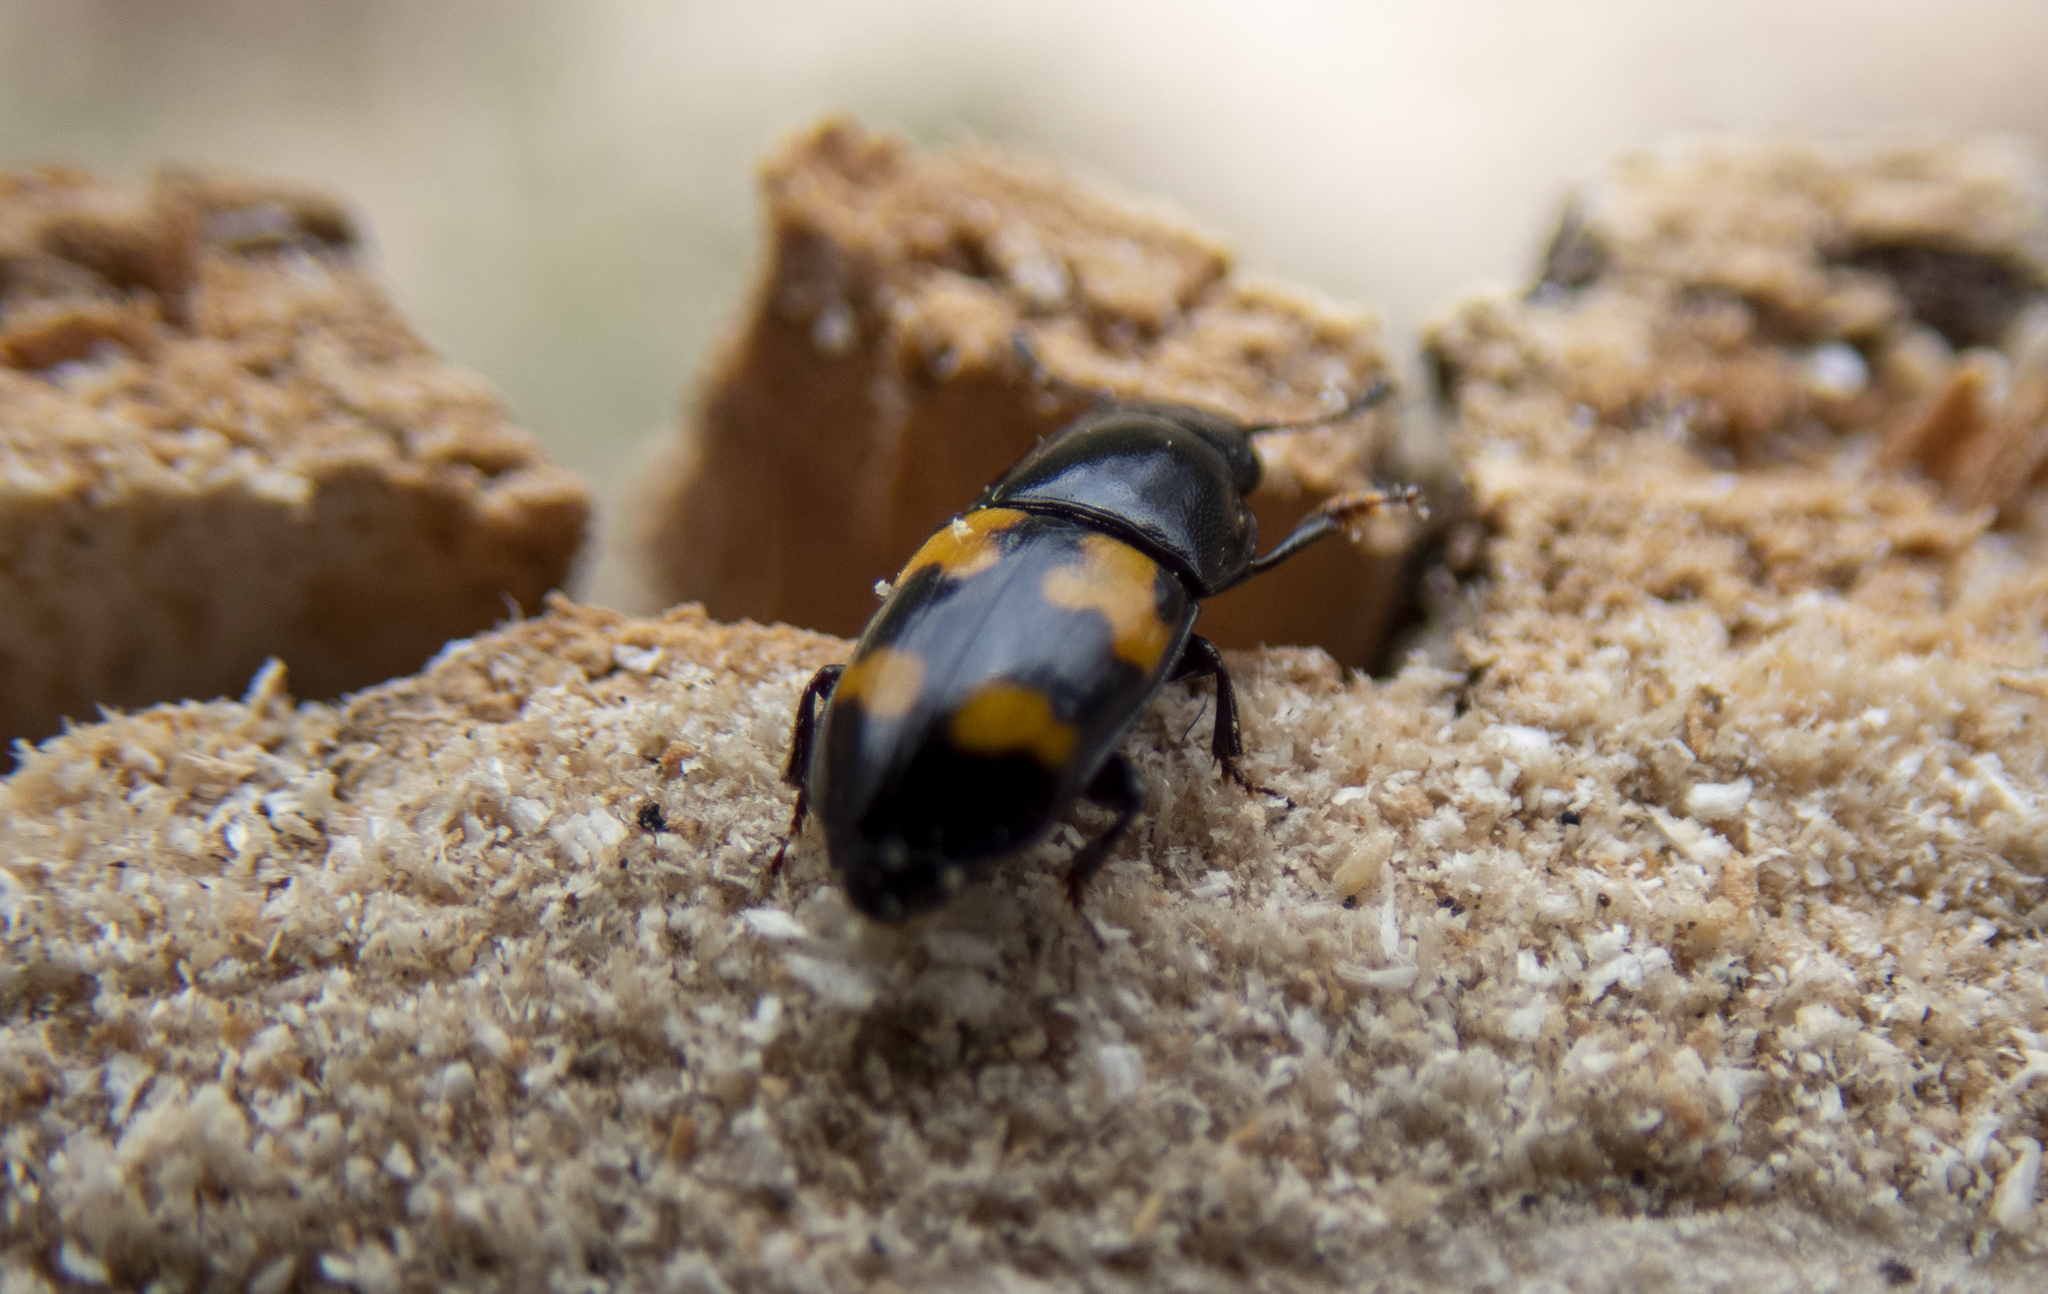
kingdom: Animalia
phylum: Arthropoda
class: Insecta
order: Coleoptera
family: Nitidulidae
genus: Glischrochilus
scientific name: Glischrochilus fasciatus
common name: Picnic beetle
